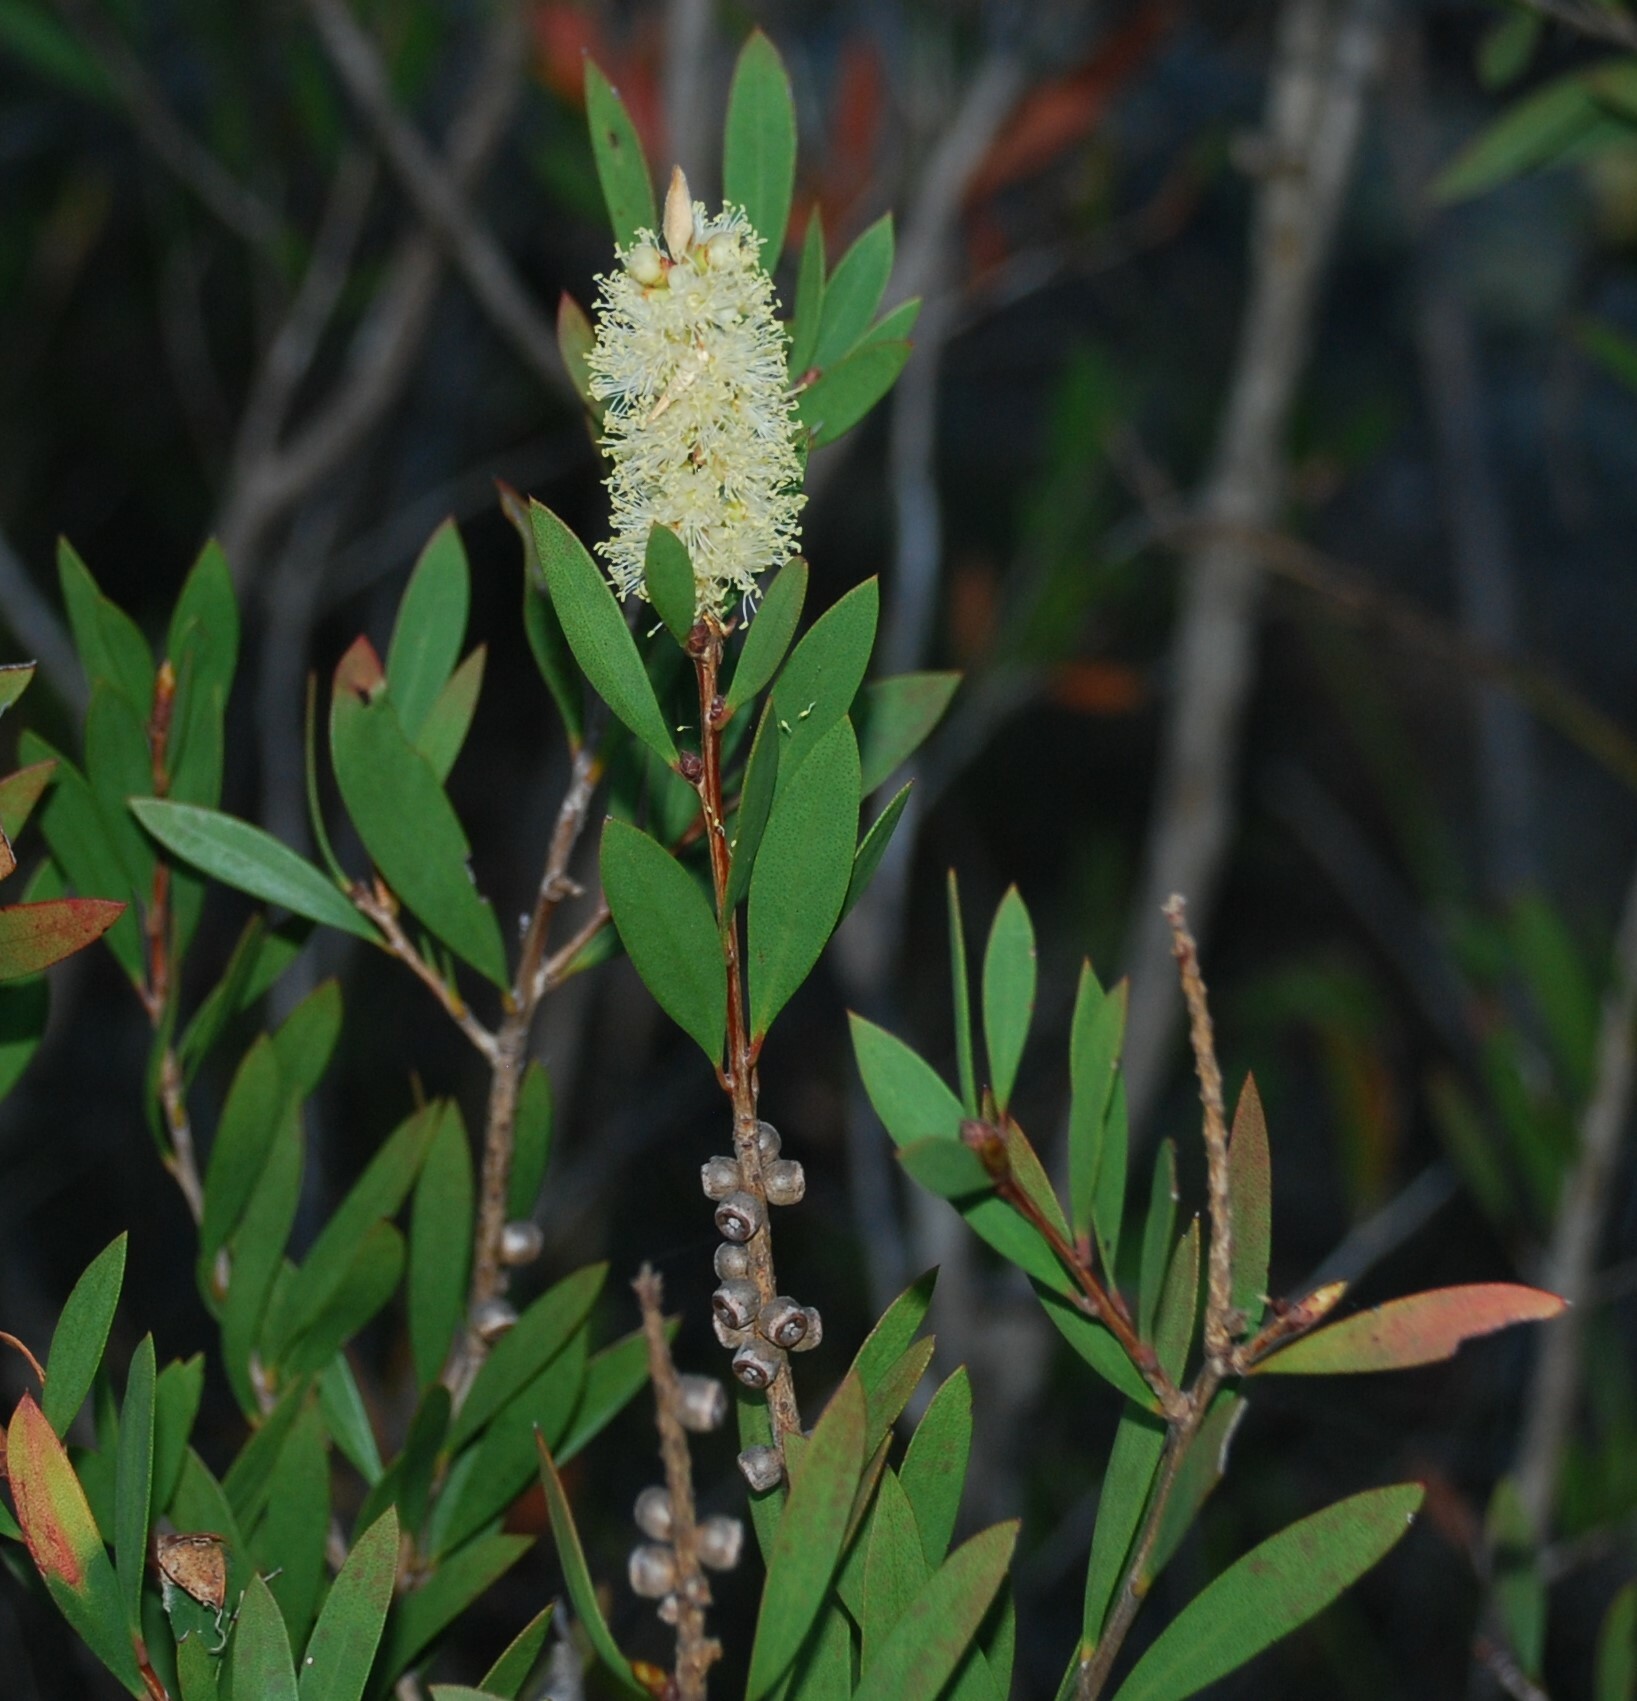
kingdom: Plantae
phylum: Tracheophyta
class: Magnoliopsida
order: Myrtales
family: Myrtaceae
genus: Melaleuca
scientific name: Melaleuca pallida
